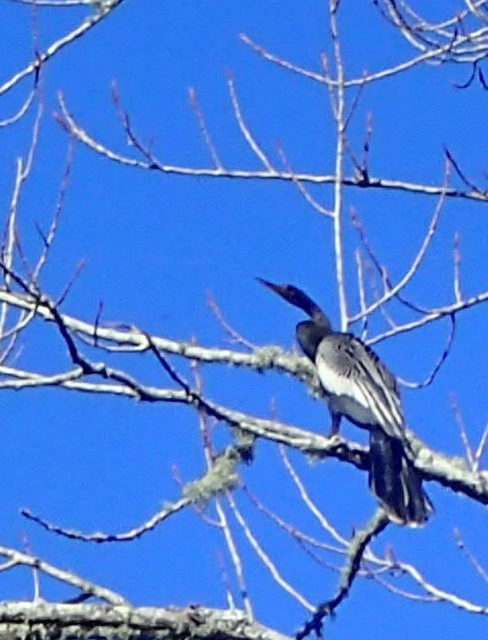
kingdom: Animalia
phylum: Chordata
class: Aves
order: Suliformes
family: Anhingidae
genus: Anhinga
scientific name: Anhinga anhinga
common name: Anhinga
